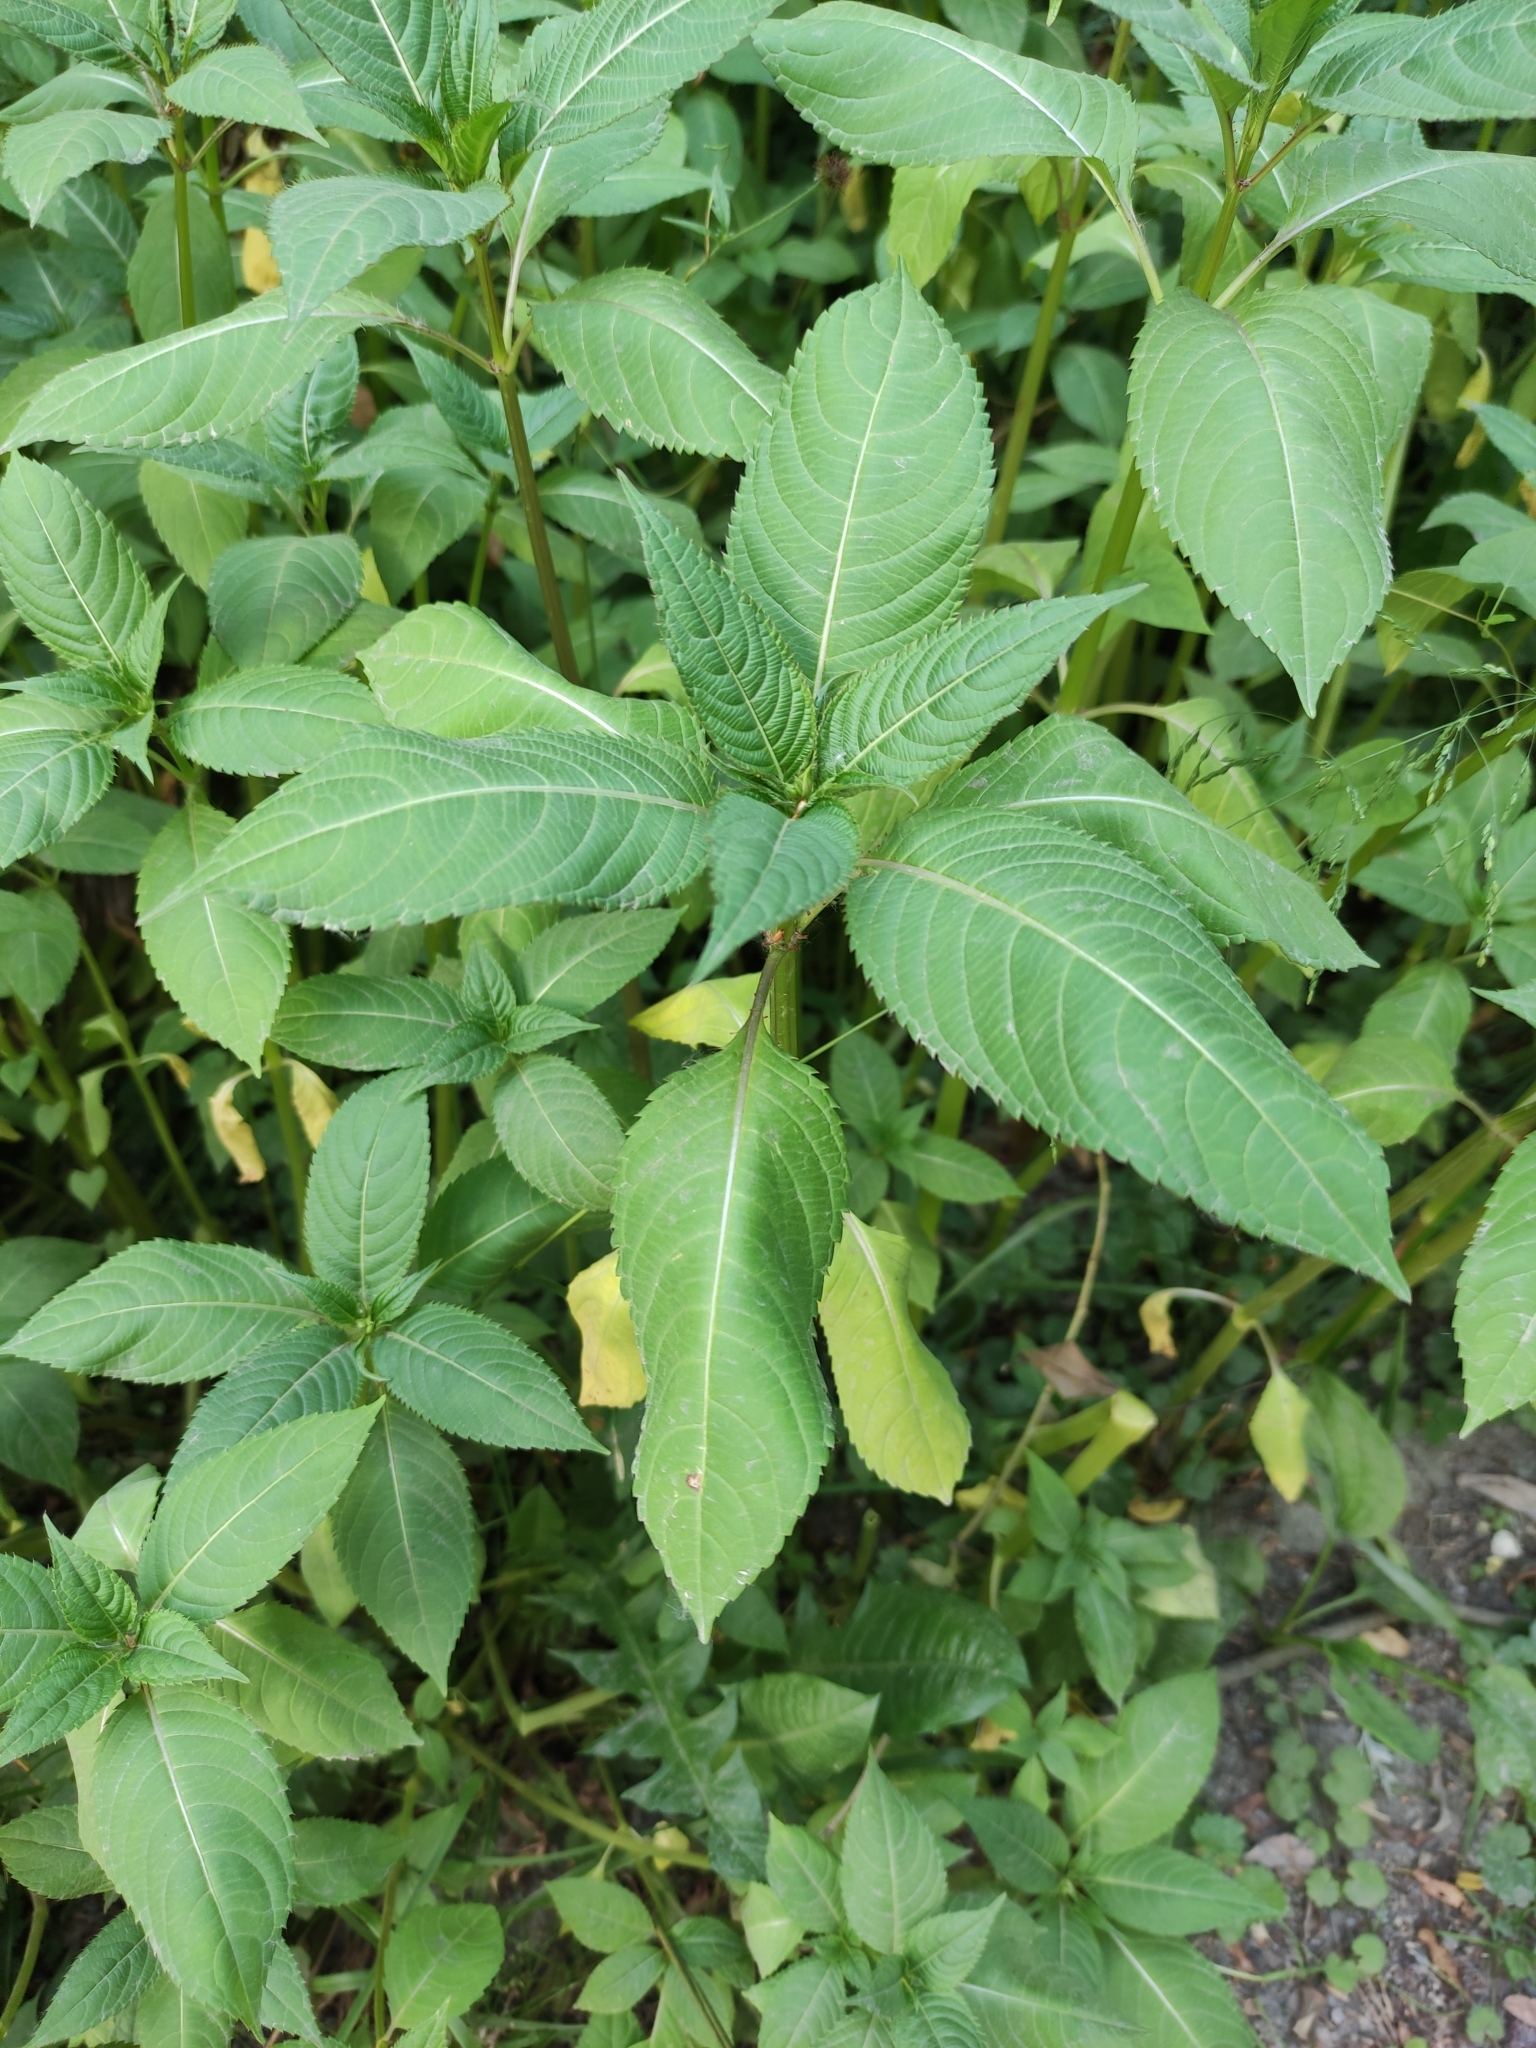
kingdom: Plantae
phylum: Tracheophyta
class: Magnoliopsida
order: Ericales
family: Balsaminaceae
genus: Impatiens
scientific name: Impatiens glandulifera
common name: Himalayan balsam
